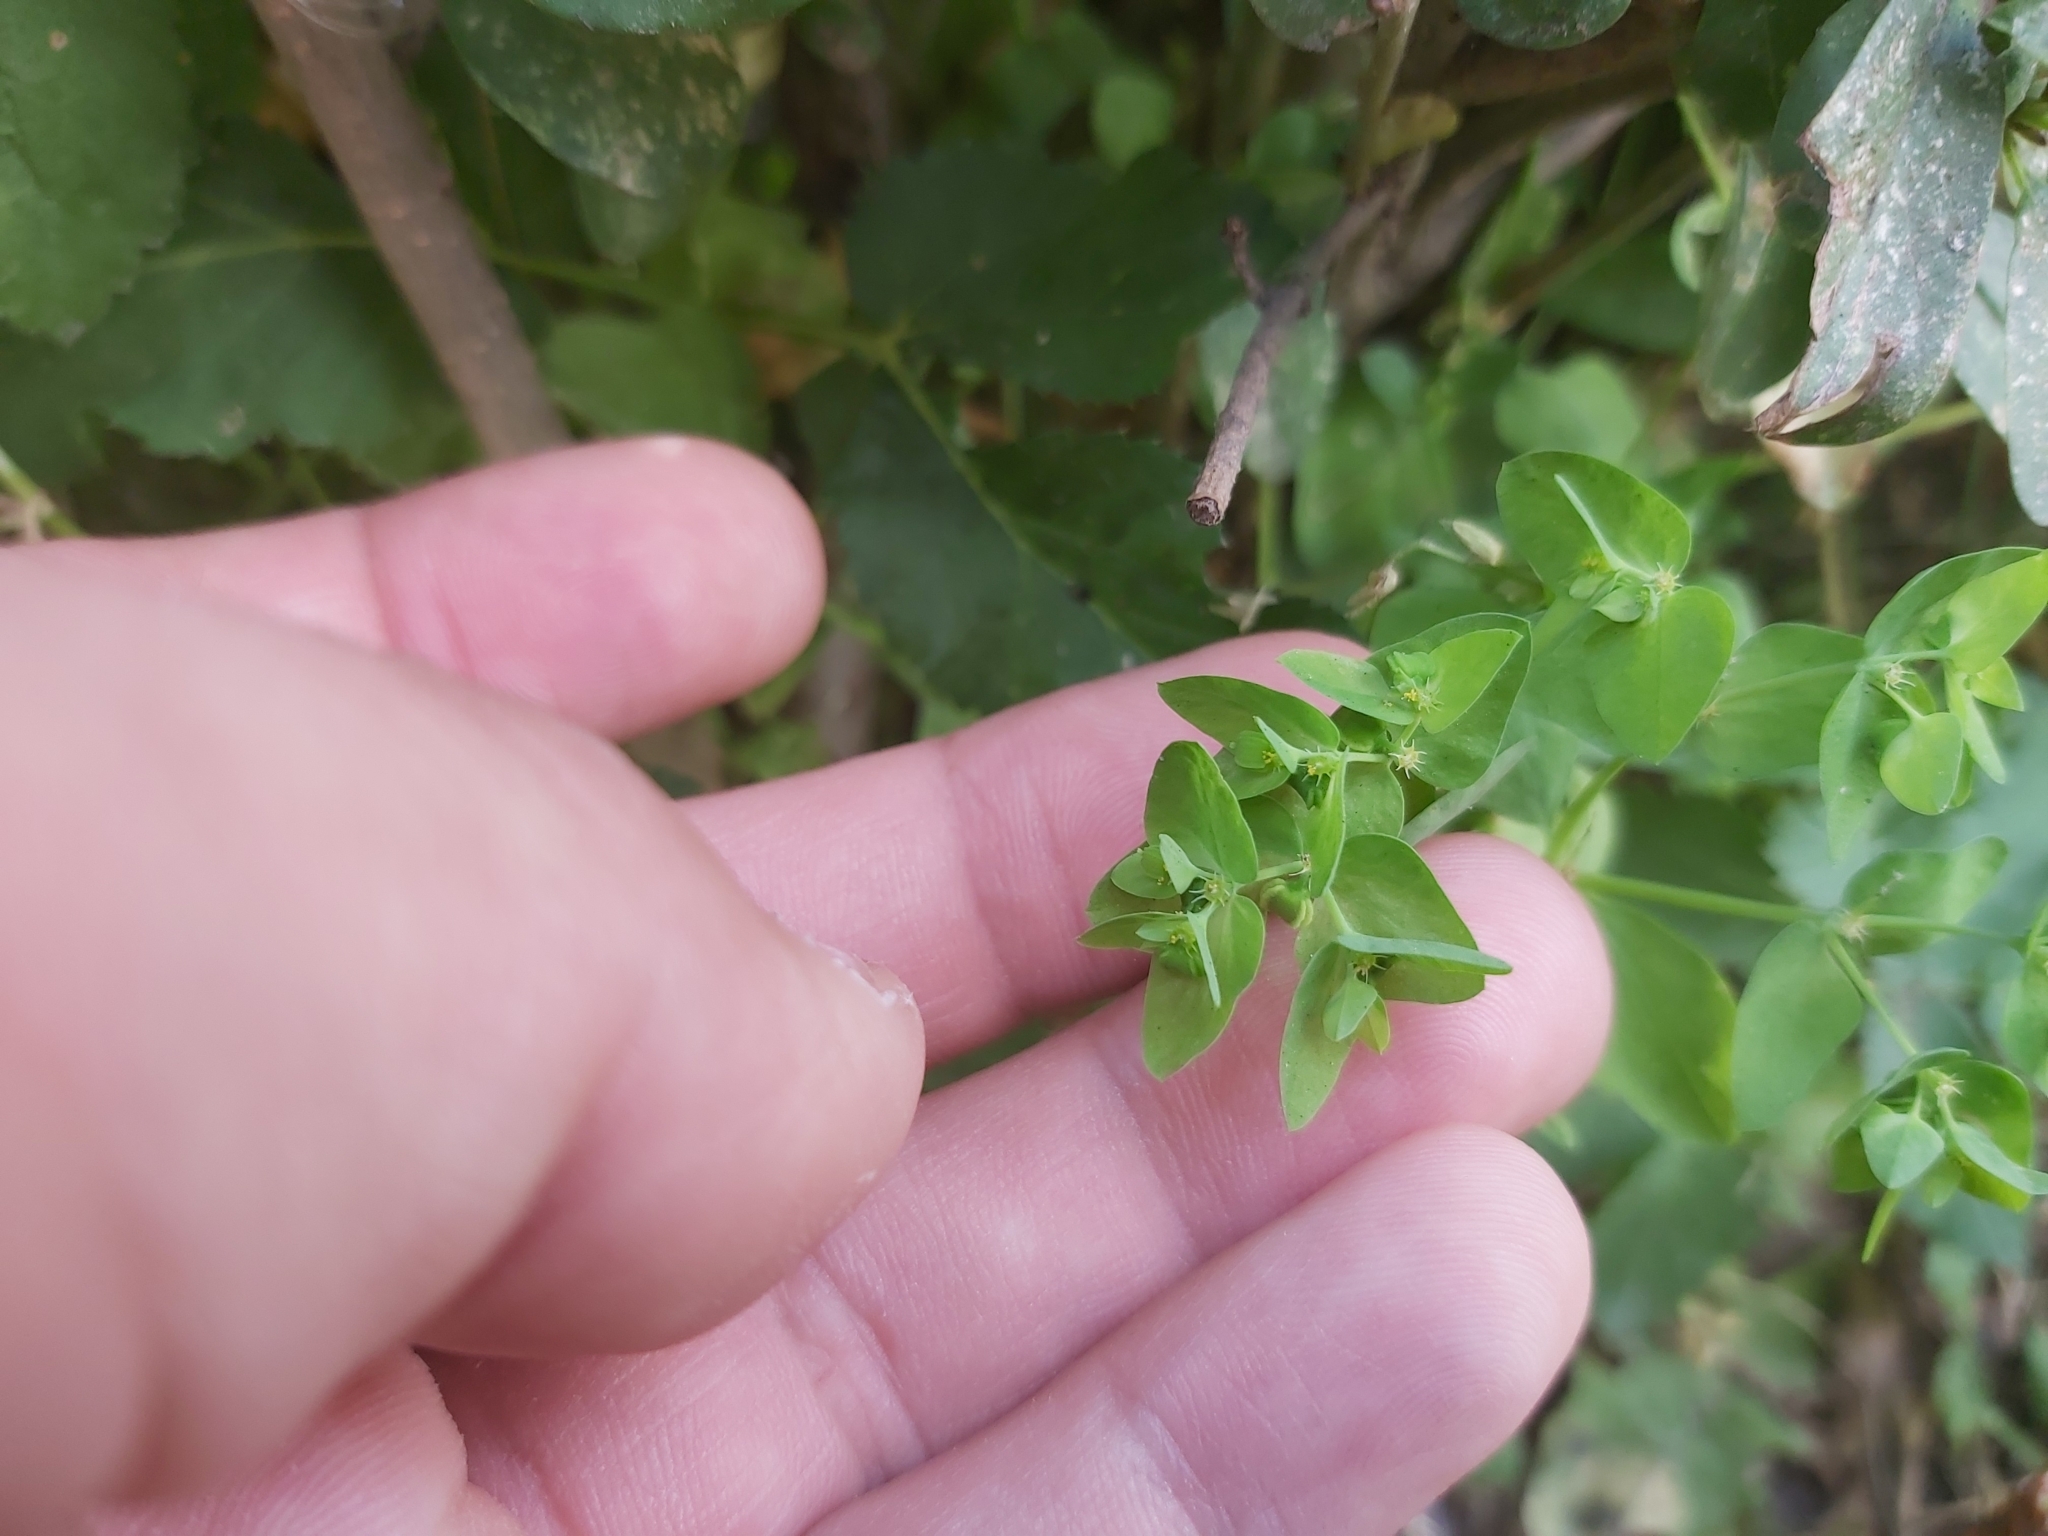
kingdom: Plantae
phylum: Tracheophyta
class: Magnoliopsida
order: Malpighiales
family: Euphorbiaceae
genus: Euphorbia
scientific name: Euphorbia peplus
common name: Petty spurge
